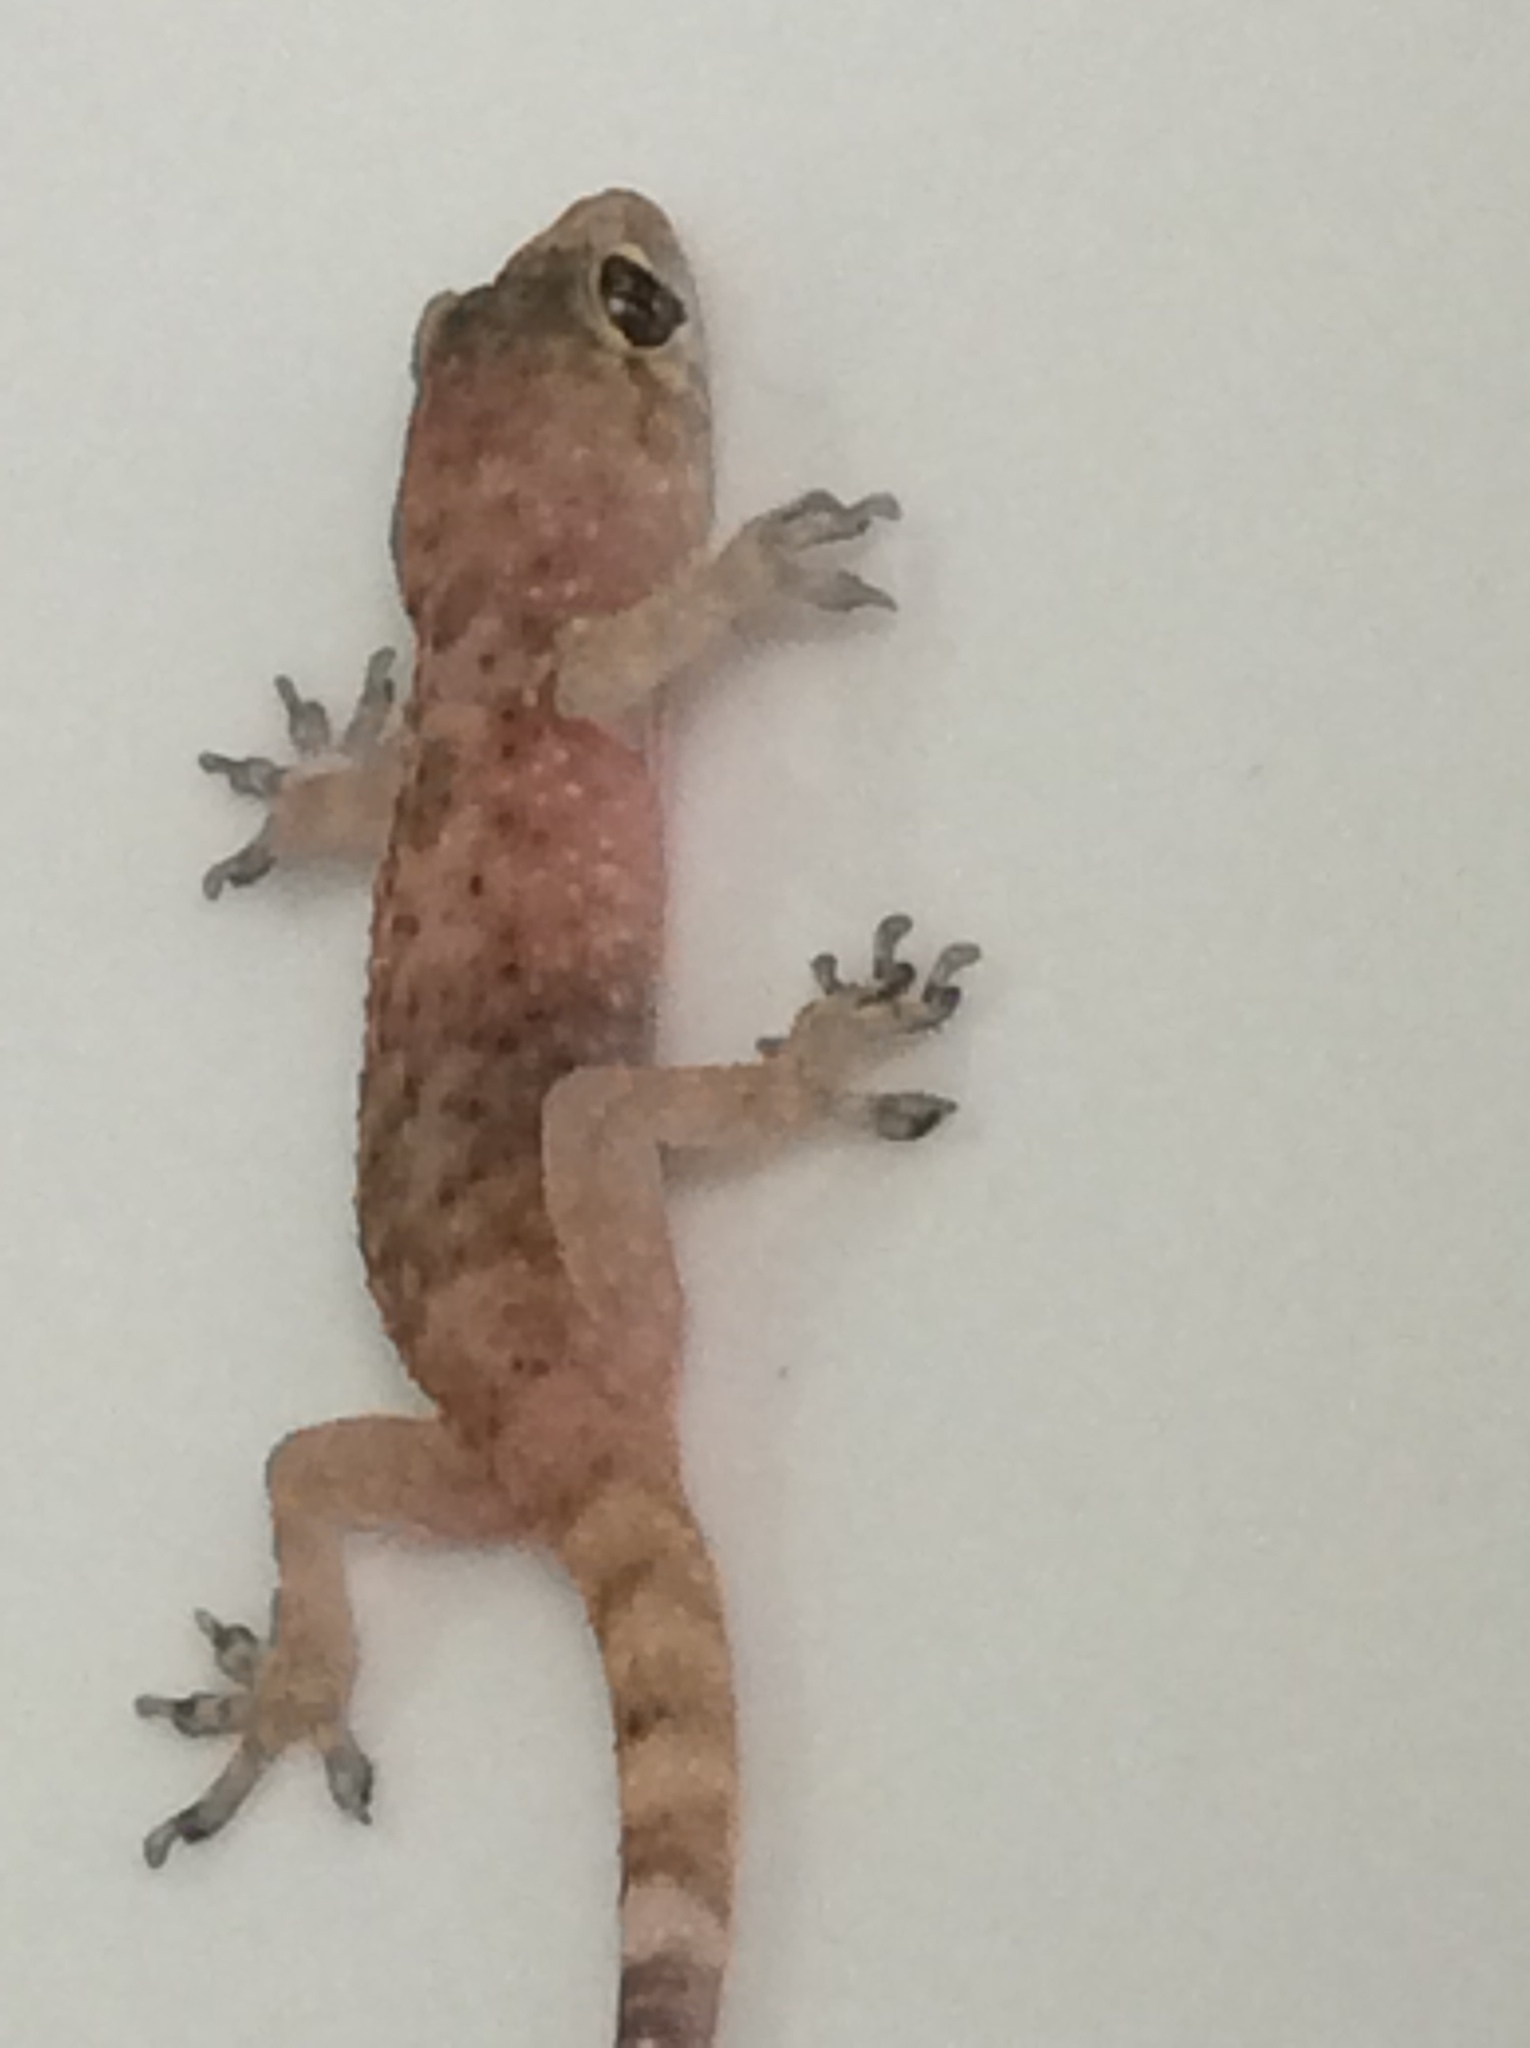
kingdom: Animalia
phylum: Chordata
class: Squamata
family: Gekkonidae
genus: Hemidactylus
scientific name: Hemidactylus turcicus
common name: Turkish gecko
